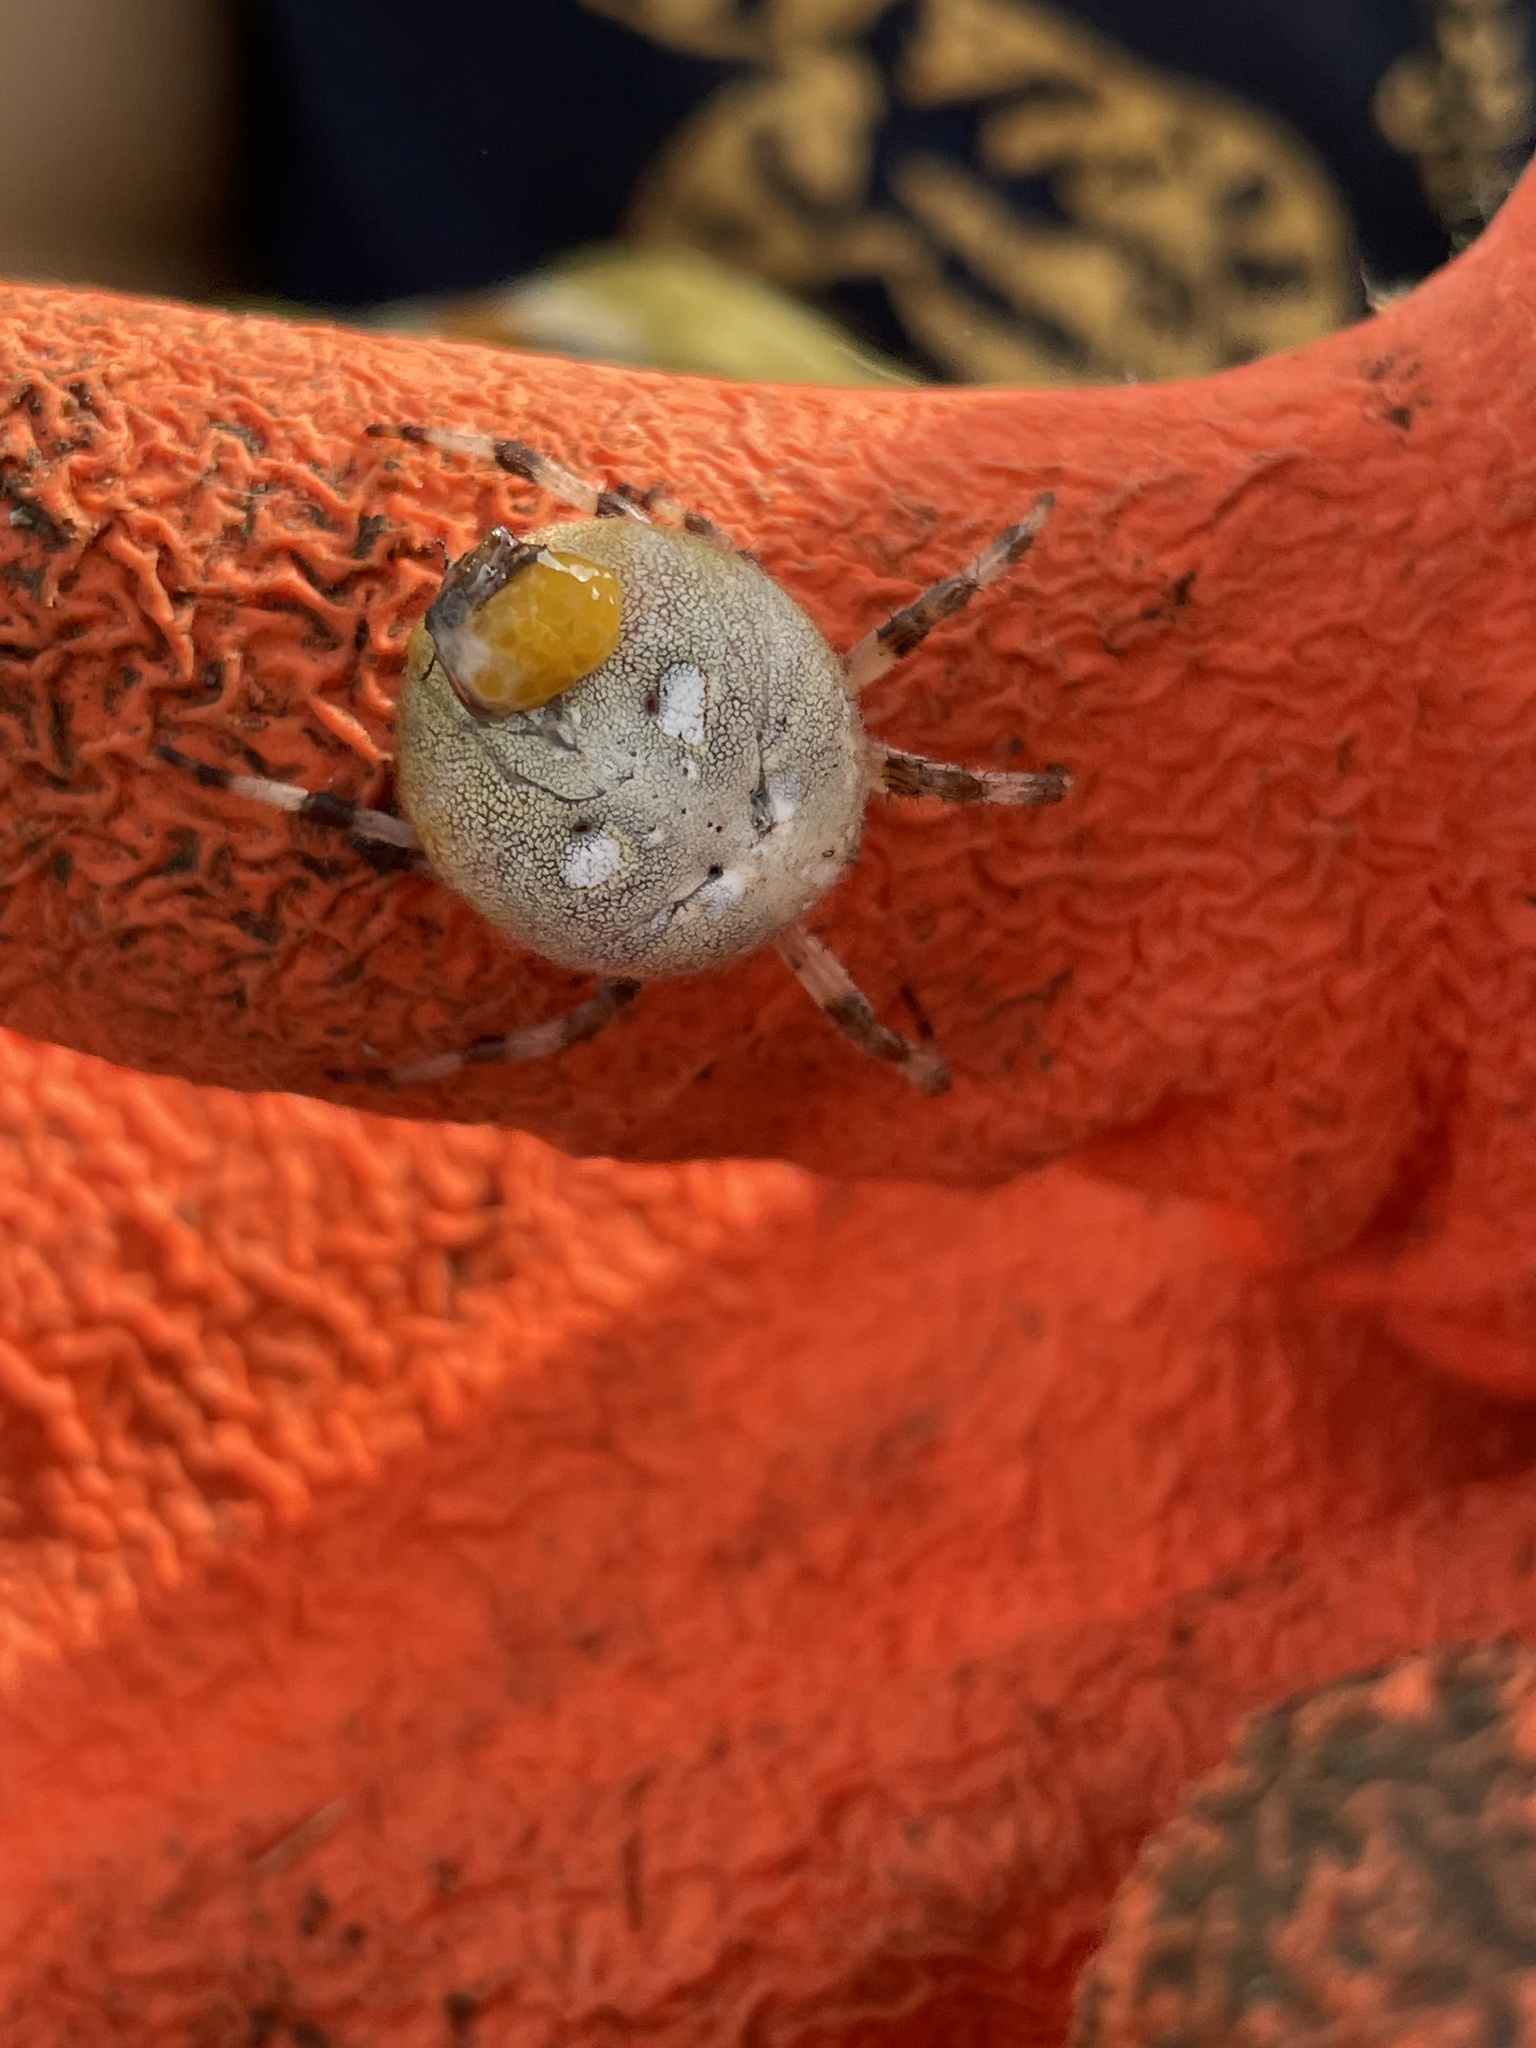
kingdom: Animalia
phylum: Arthropoda
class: Arachnida
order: Araneae
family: Araneidae
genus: Araneus
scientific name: Araneus quadratus
